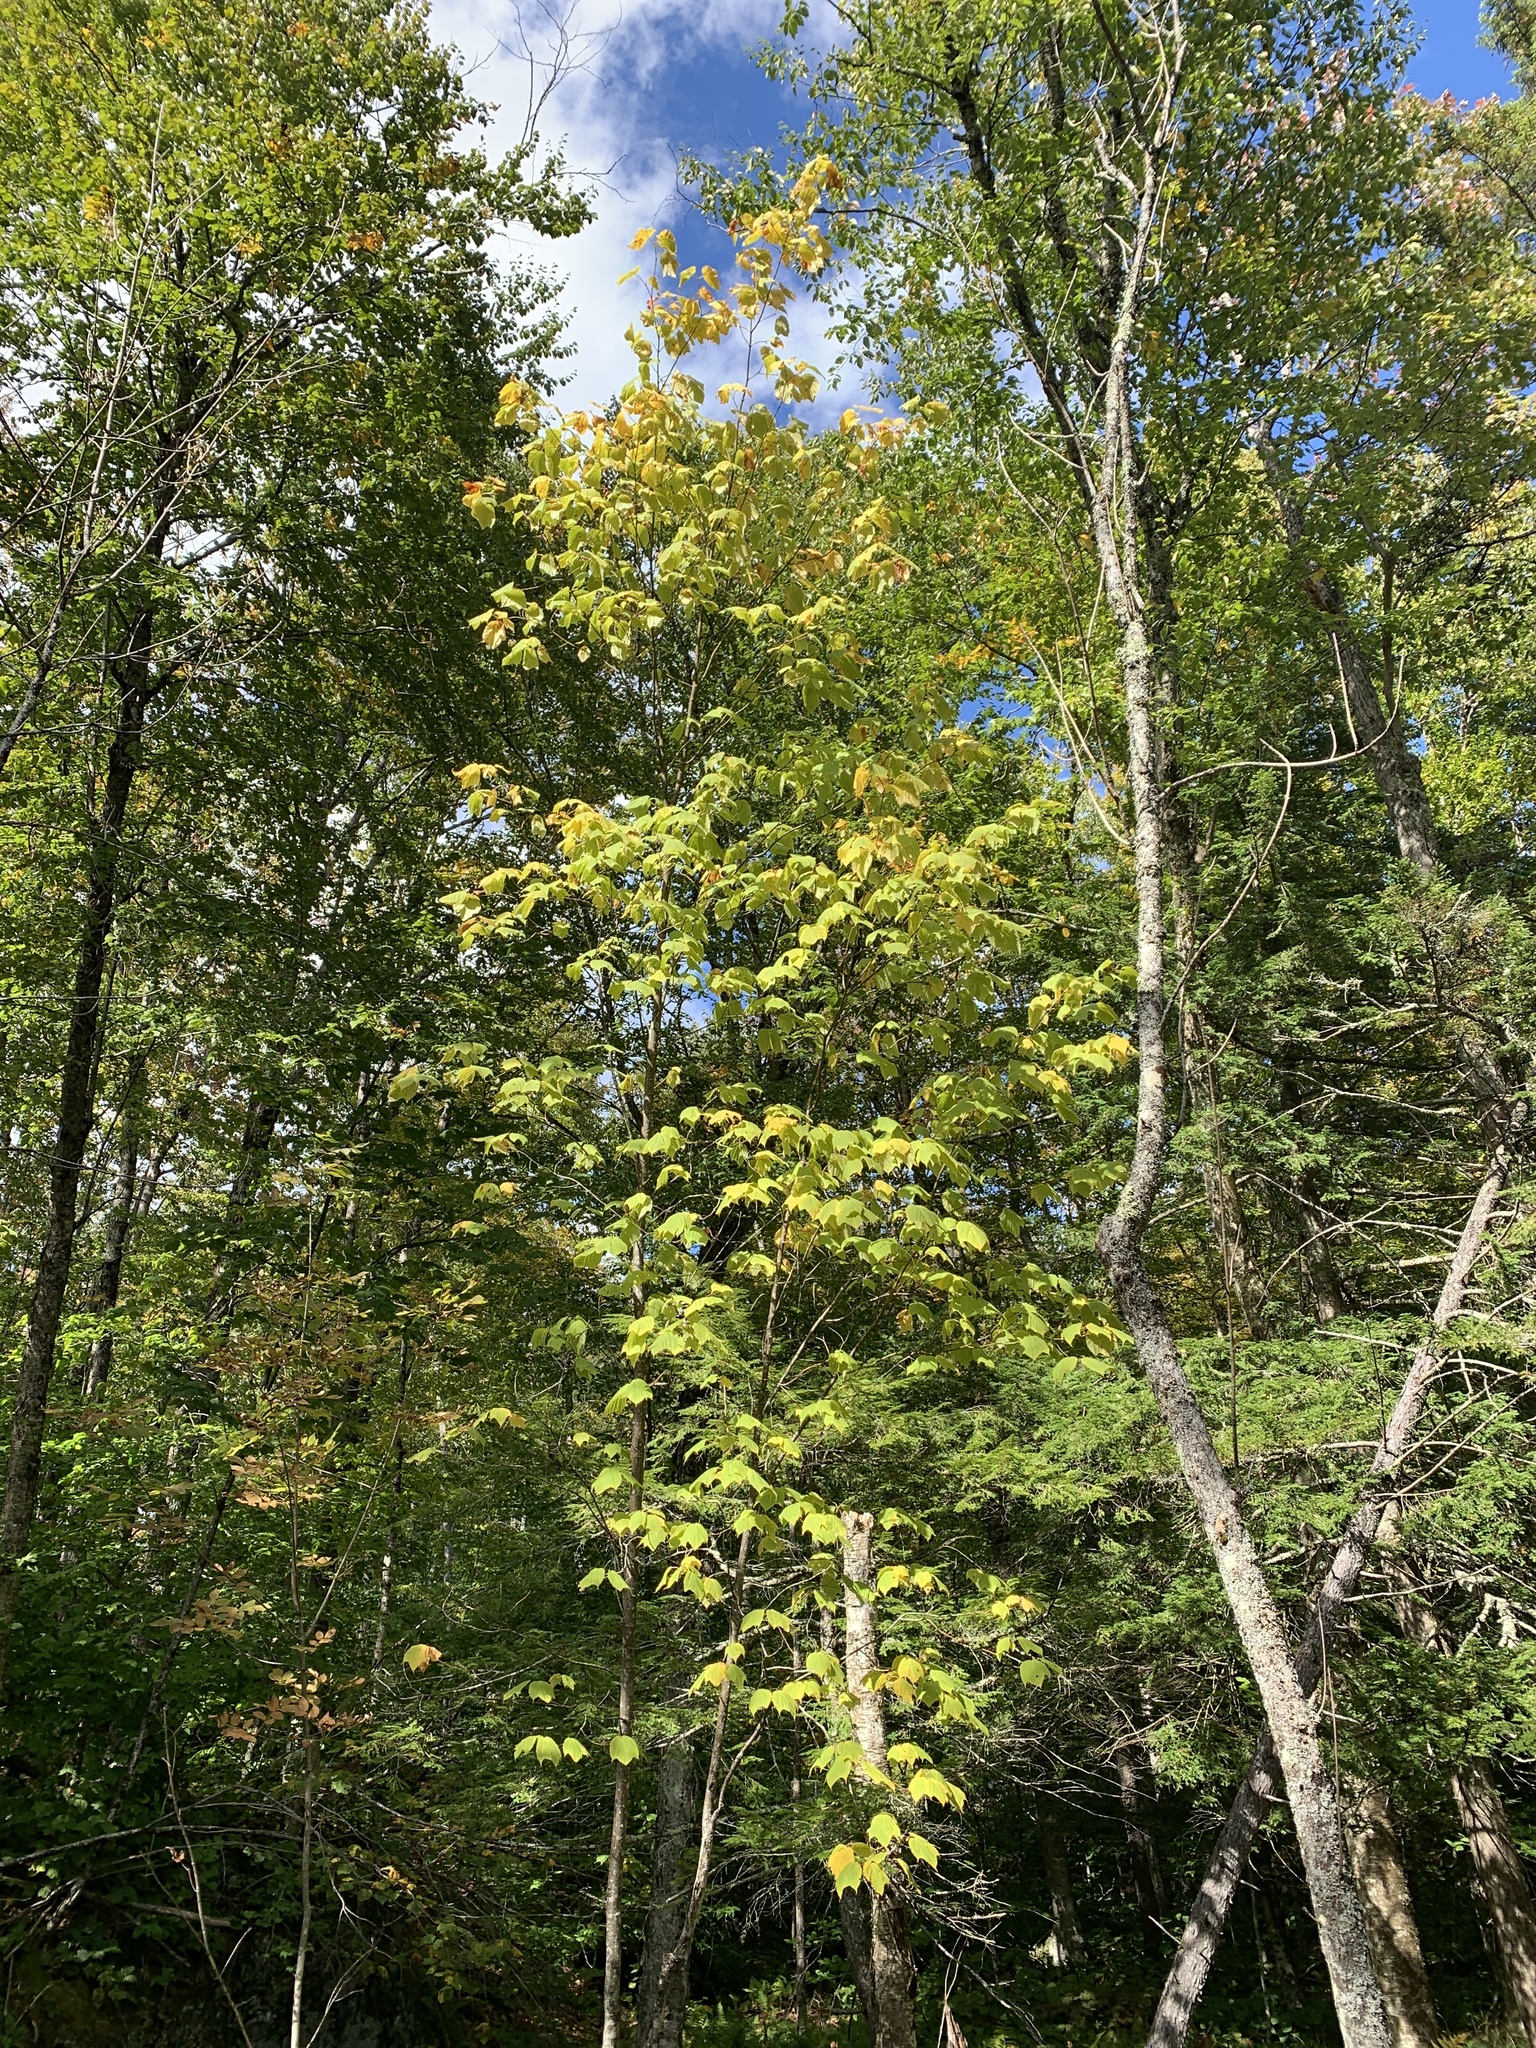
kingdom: Plantae
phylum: Tracheophyta
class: Magnoliopsida
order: Sapindales
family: Sapindaceae
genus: Acer
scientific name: Acer pensylvanicum
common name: Moosewood
